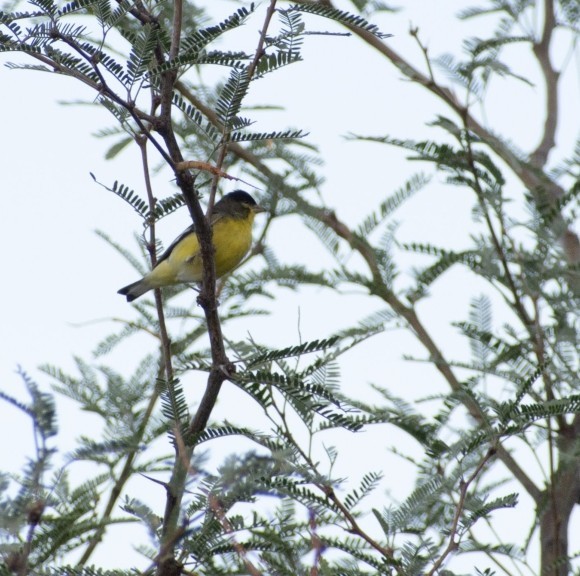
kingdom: Animalia
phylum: Chordata
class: Aves
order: Passeriformes
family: Fringillidae
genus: Spinus
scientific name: Spinus psaltria
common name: Lesser goldfinch
